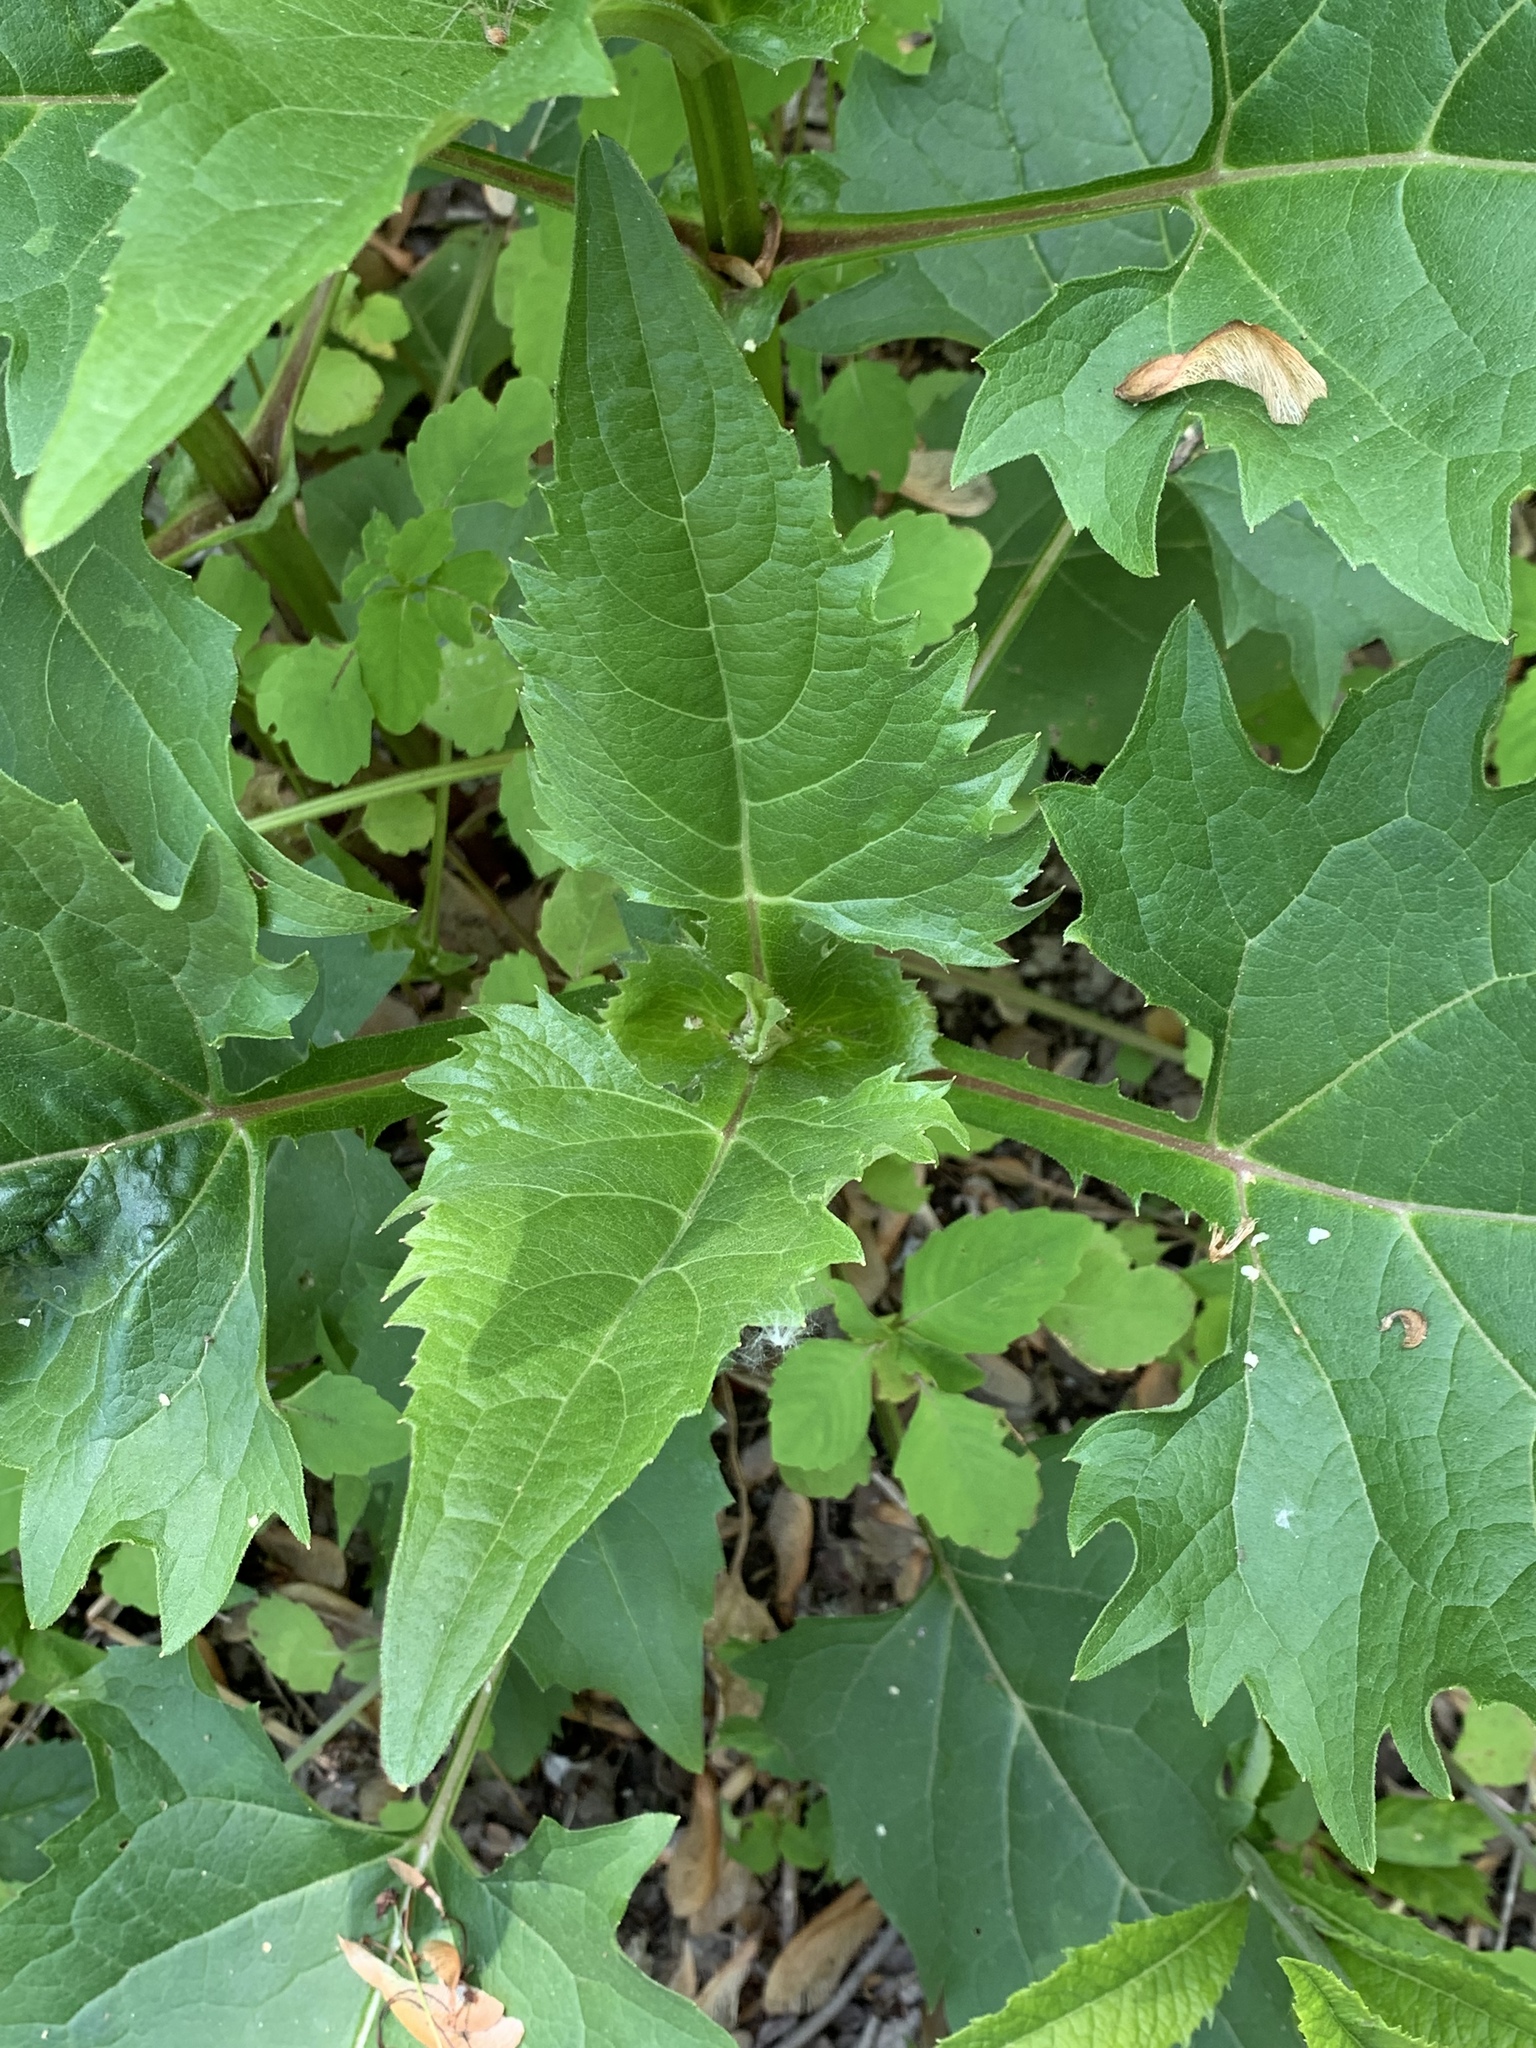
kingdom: Plantae
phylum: Tracheophyta
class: Magnoliopsida
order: Asterales
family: Asteraceae
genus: Silphium
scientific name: Silphium perfoliatum
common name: Cup-plant
